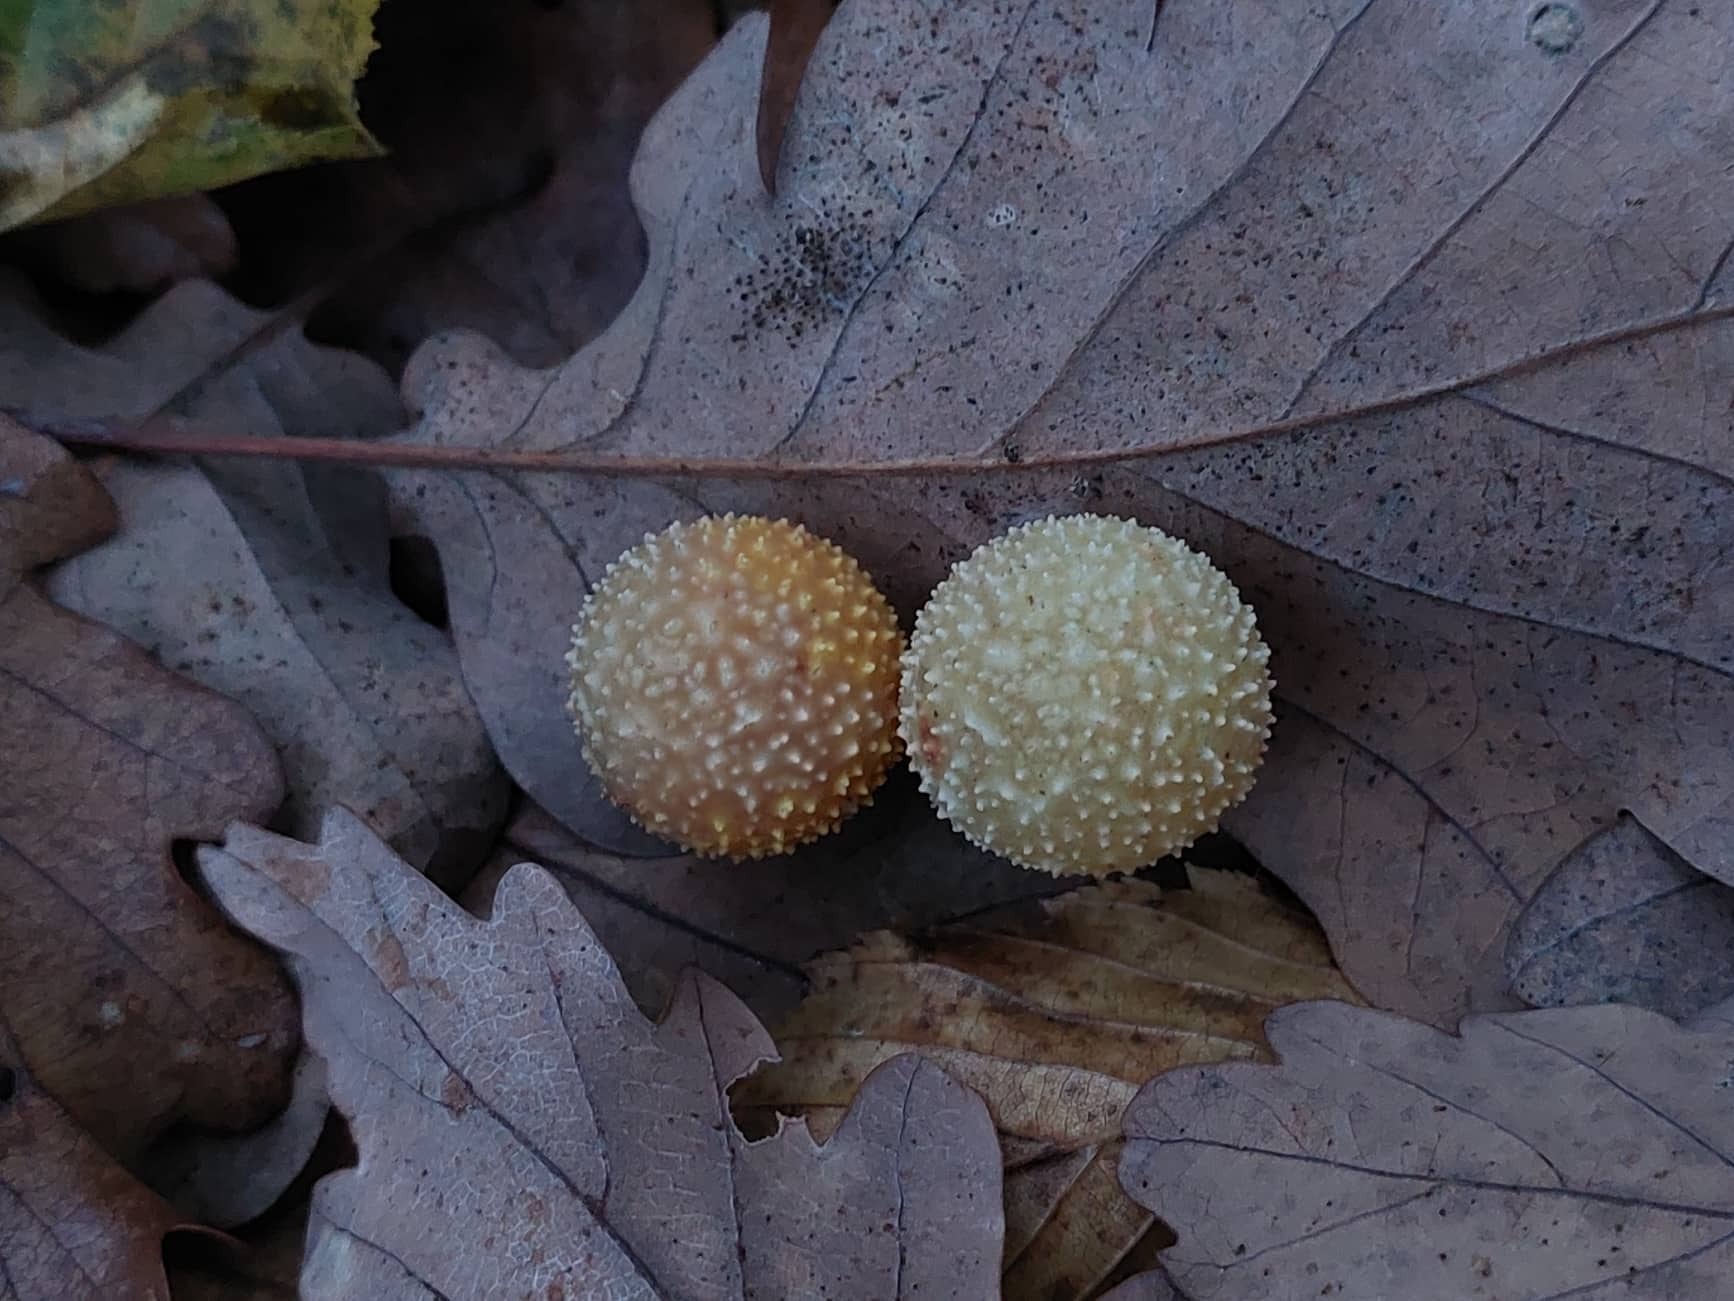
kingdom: Animalia
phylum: Arthropoda
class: Insecta
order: Hymenoptera
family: Cynipidae
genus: Cynips
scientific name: Cynips quercusfolii
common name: Cherry gall
